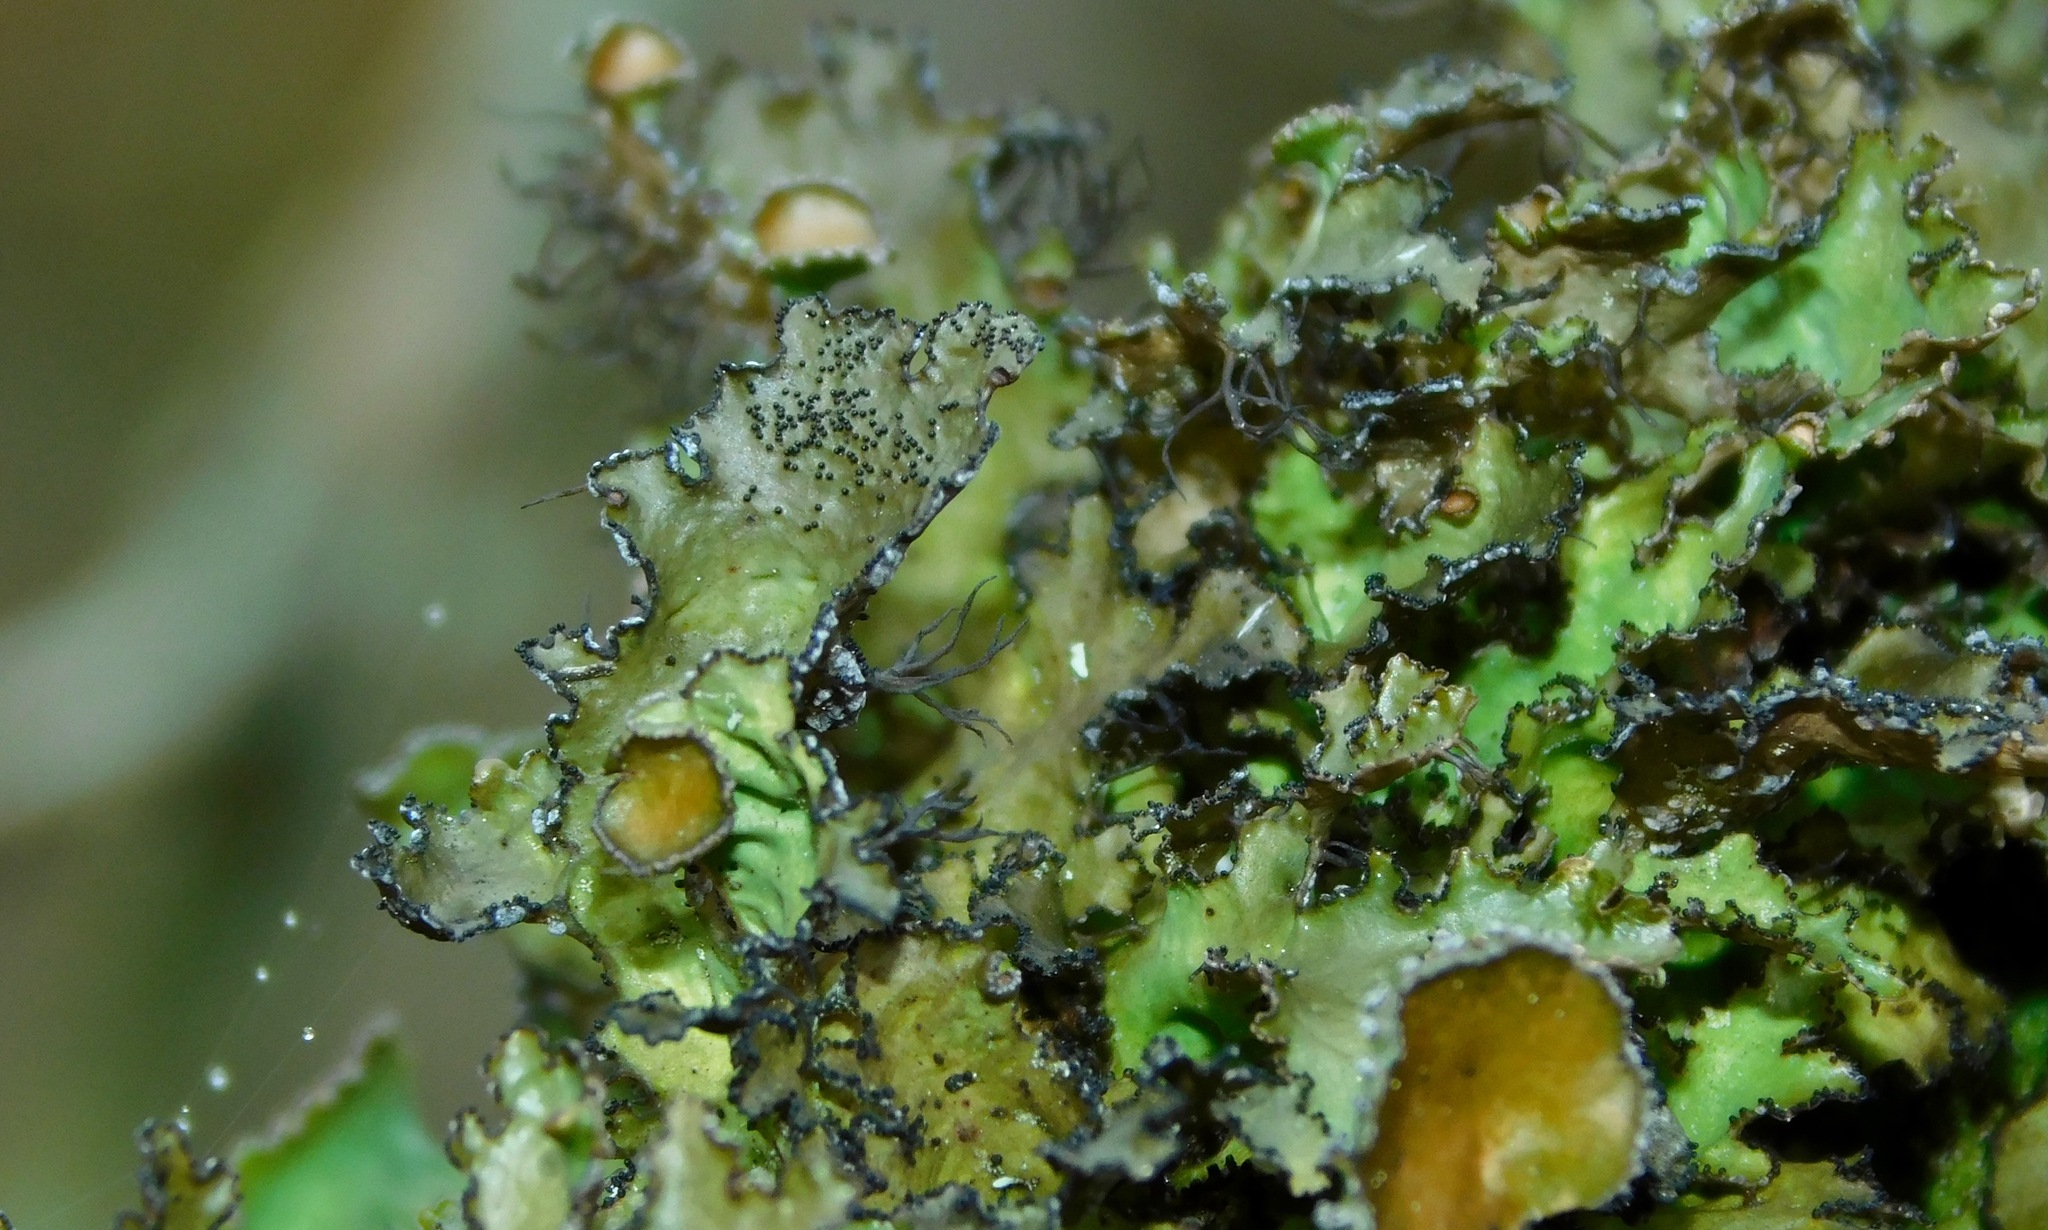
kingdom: Fungi
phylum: Ascomycota
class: Lecanoromycetes
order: Lecanorales
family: Parmeliaceae
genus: Nephromopsis
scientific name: Nephromopsis americana
